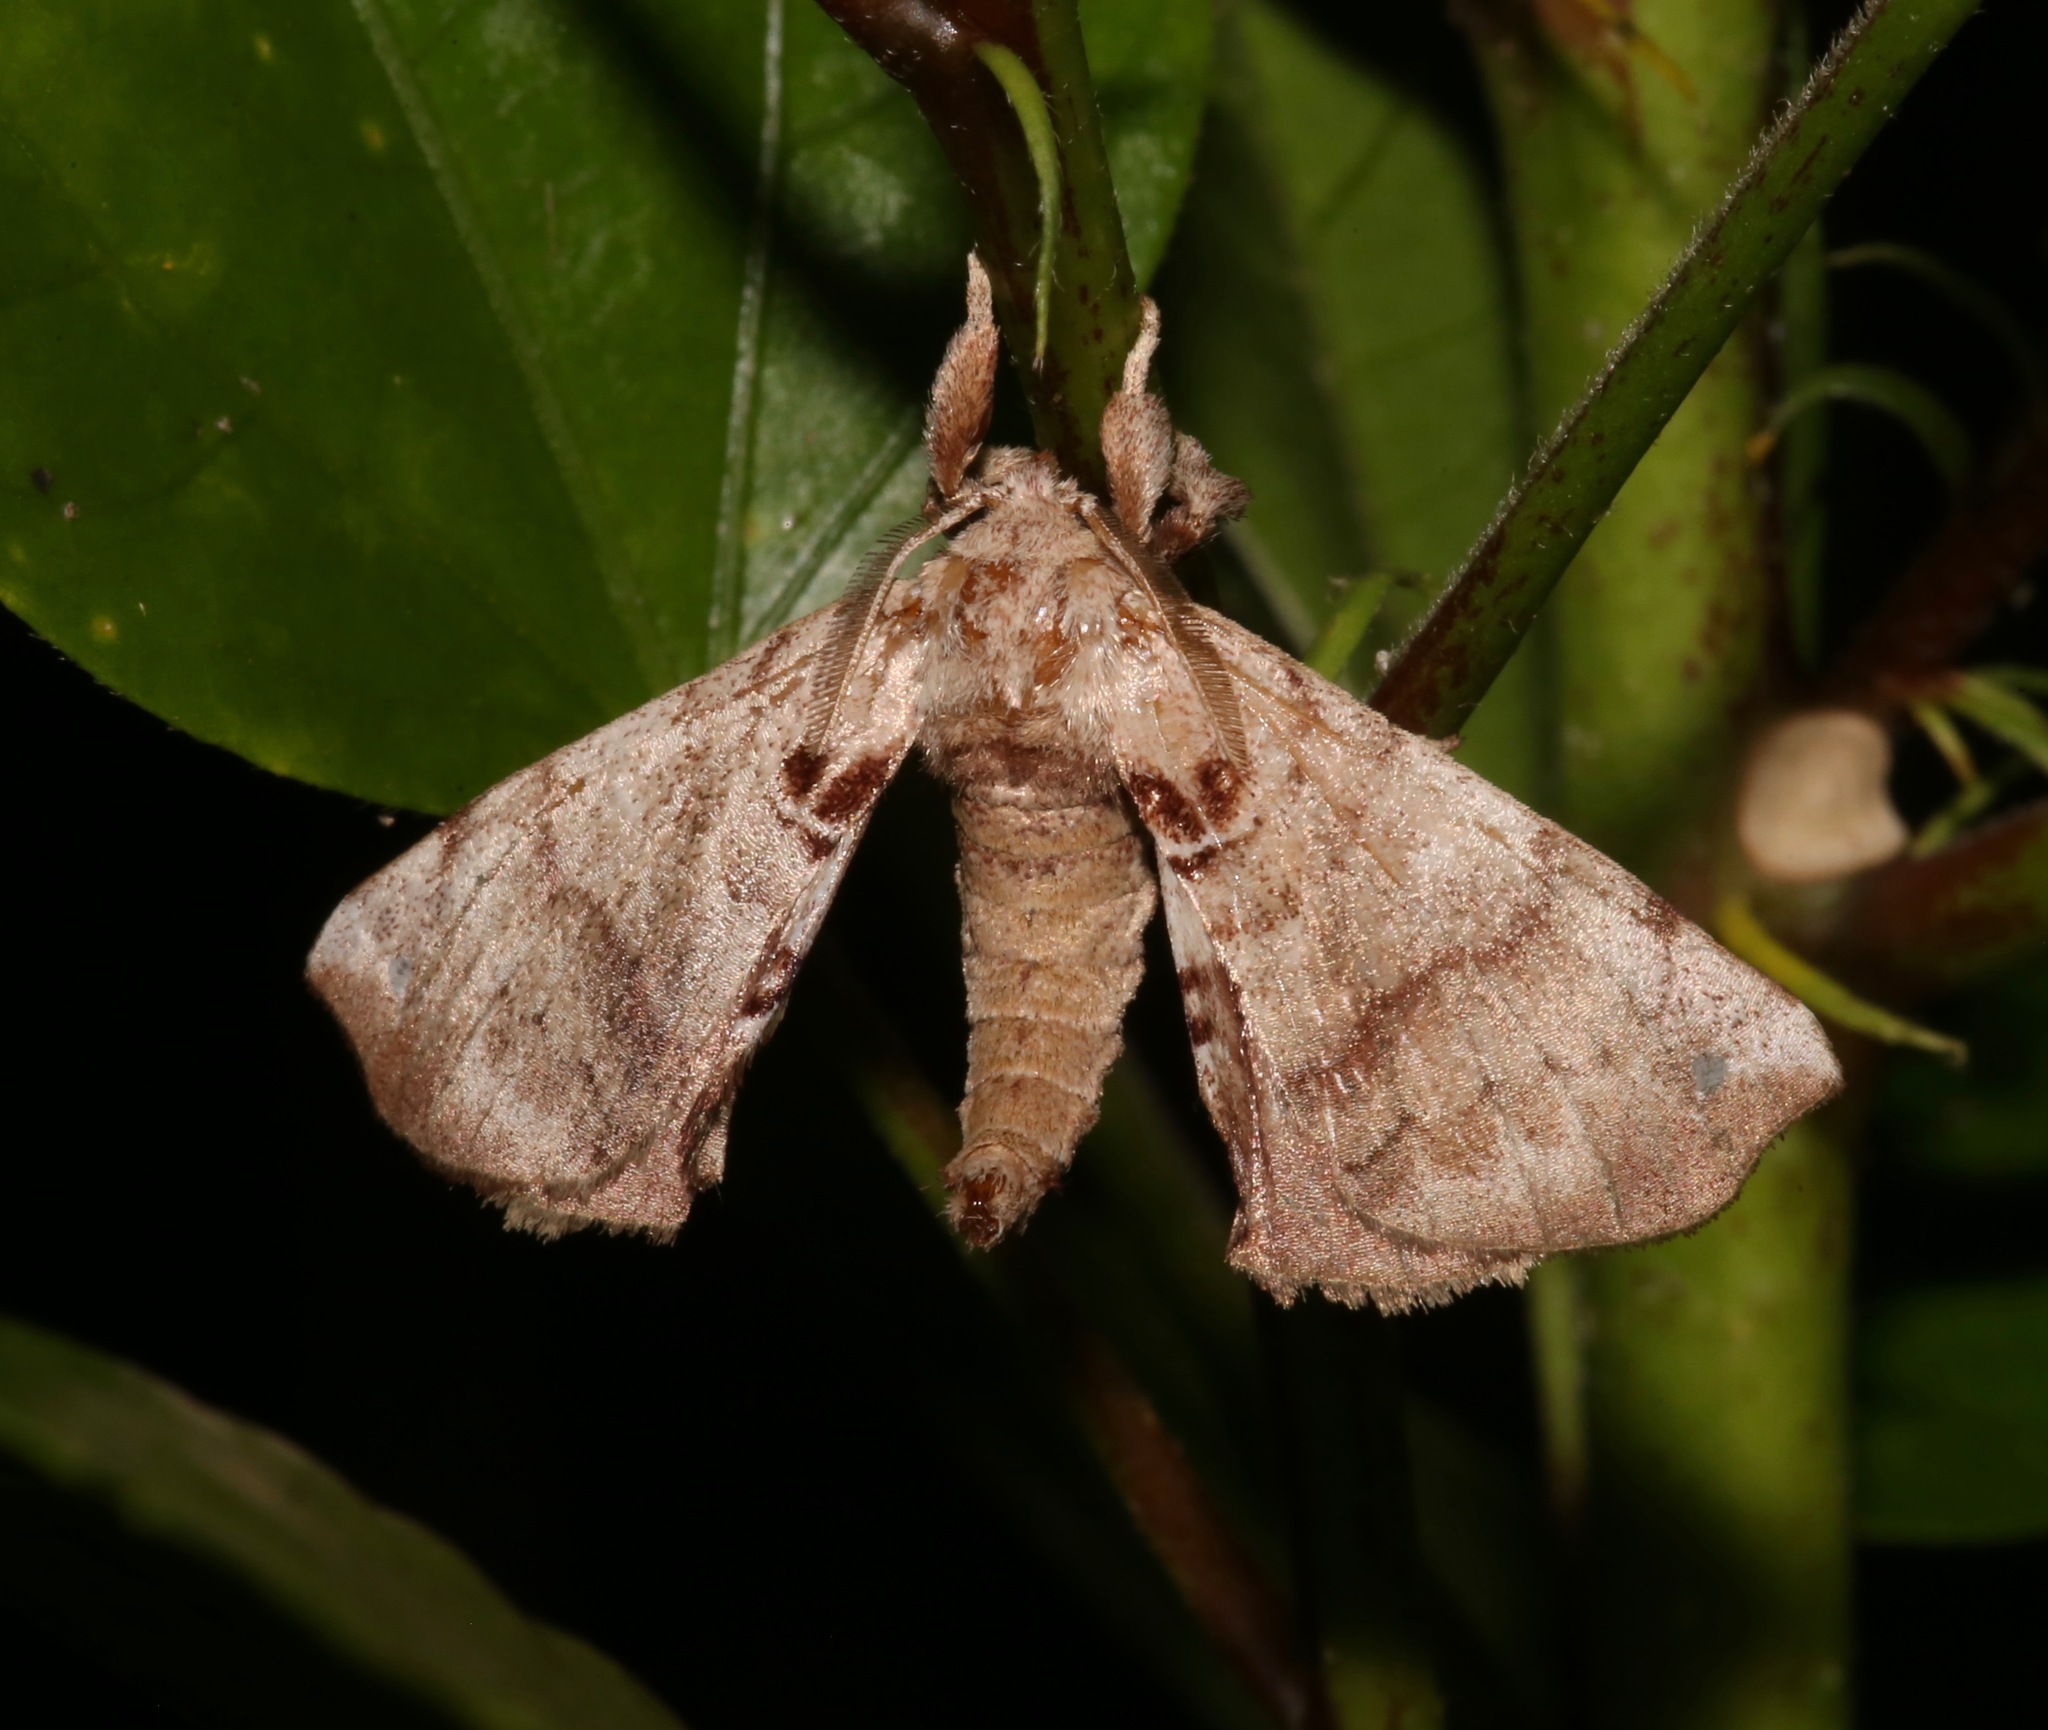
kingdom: Animalia
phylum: Arthropoda
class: Insecta
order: Lepidoptera
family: Apatelodidae
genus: Hygrochroa
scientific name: Hygrochroa Apatelodes torrefacta
